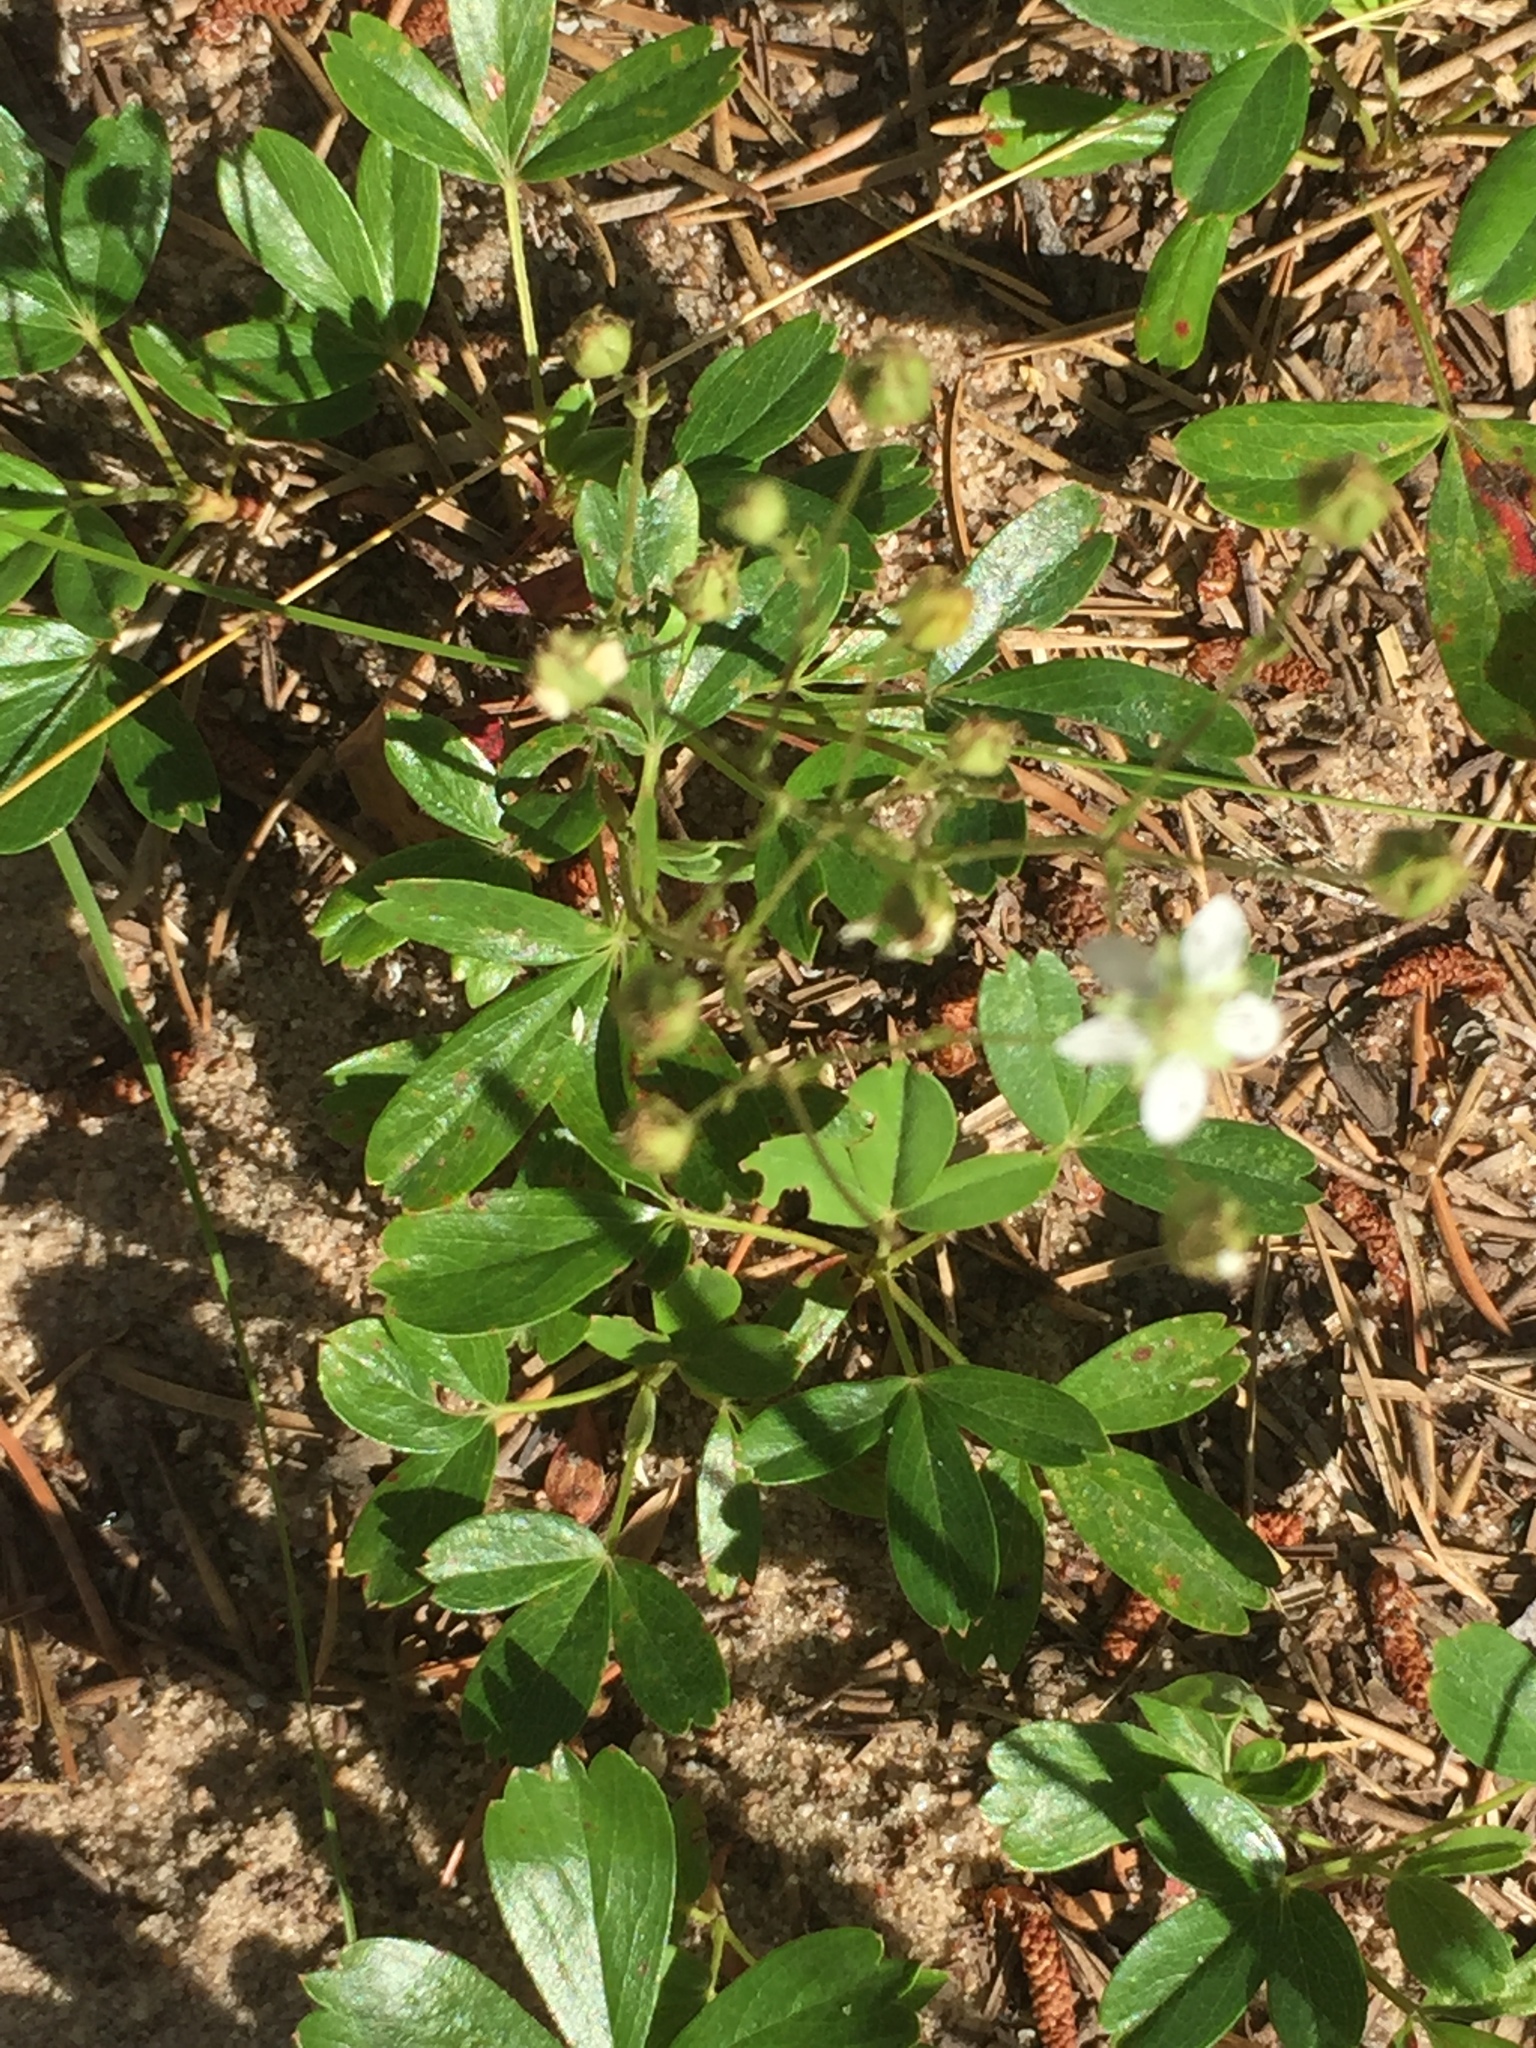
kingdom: Plantae
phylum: Tracheophyta
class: Magnoliopsida
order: Rosales
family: Rosaceae
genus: Sibbaldia
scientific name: Sibbaldia tridentata
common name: Three-toothed cinquefoil
